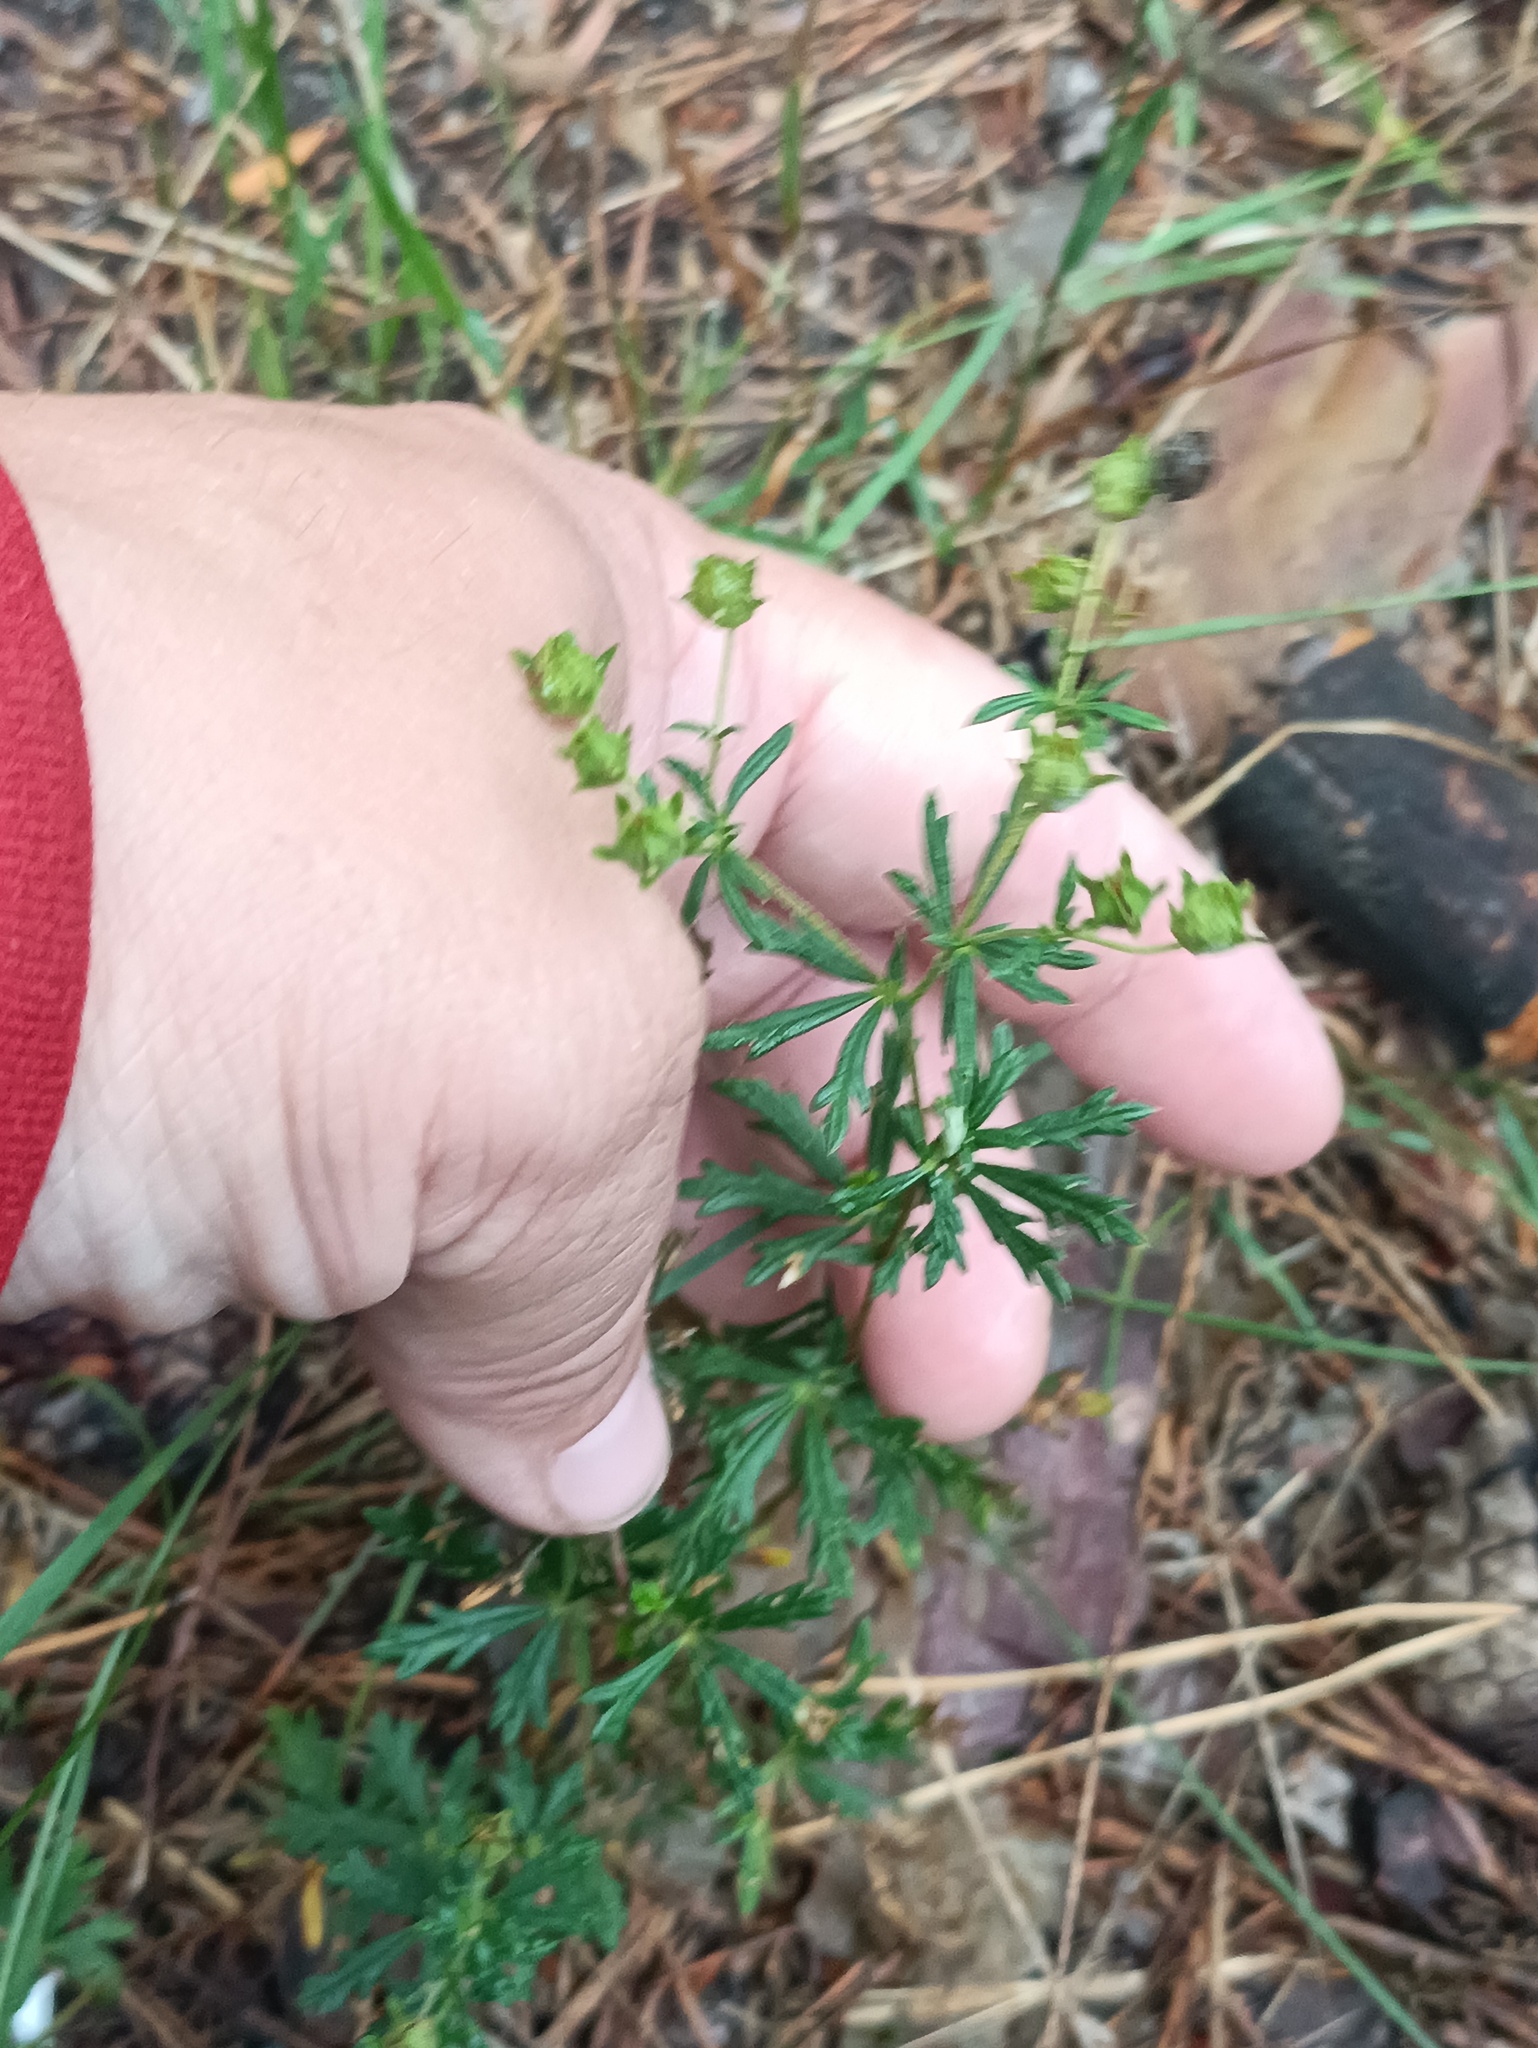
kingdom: Plantae
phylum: Tracheophyta
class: Magnoliopsida
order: Rosales
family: Rosaceae
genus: Potentilla
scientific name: Potentilla argentea
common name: Hoary cinquefoil
